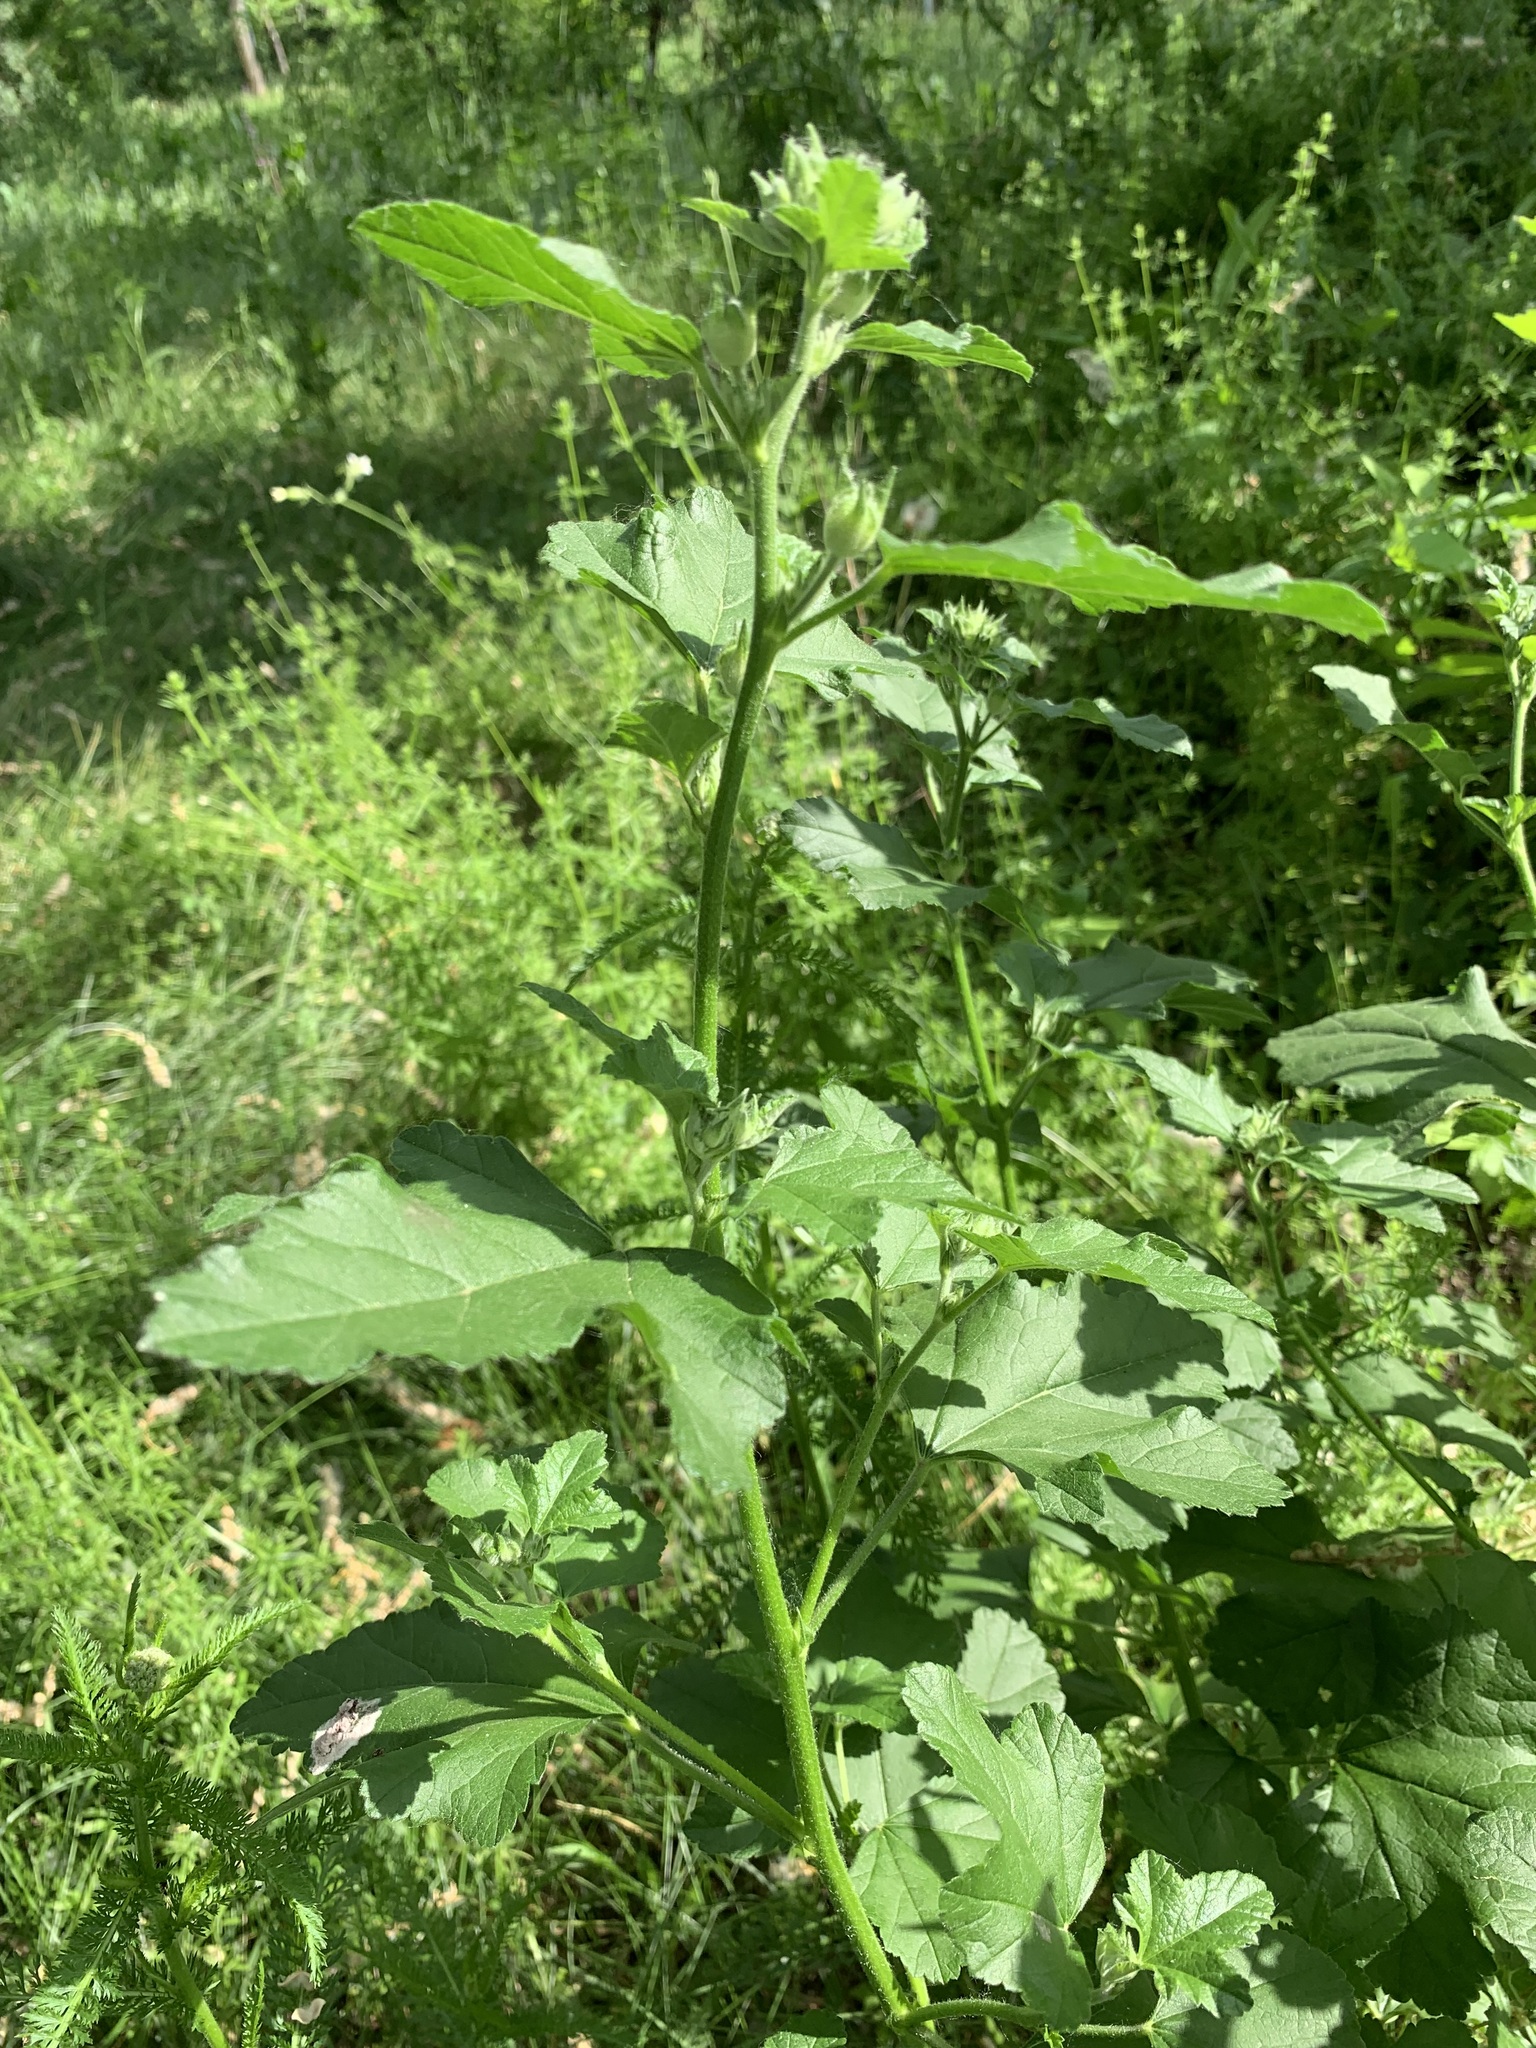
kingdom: Plantae
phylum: Tracheophyta
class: Magnoliopsida
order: Malvales
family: Malvaceae
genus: Malva
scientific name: Malva thuringiaca
